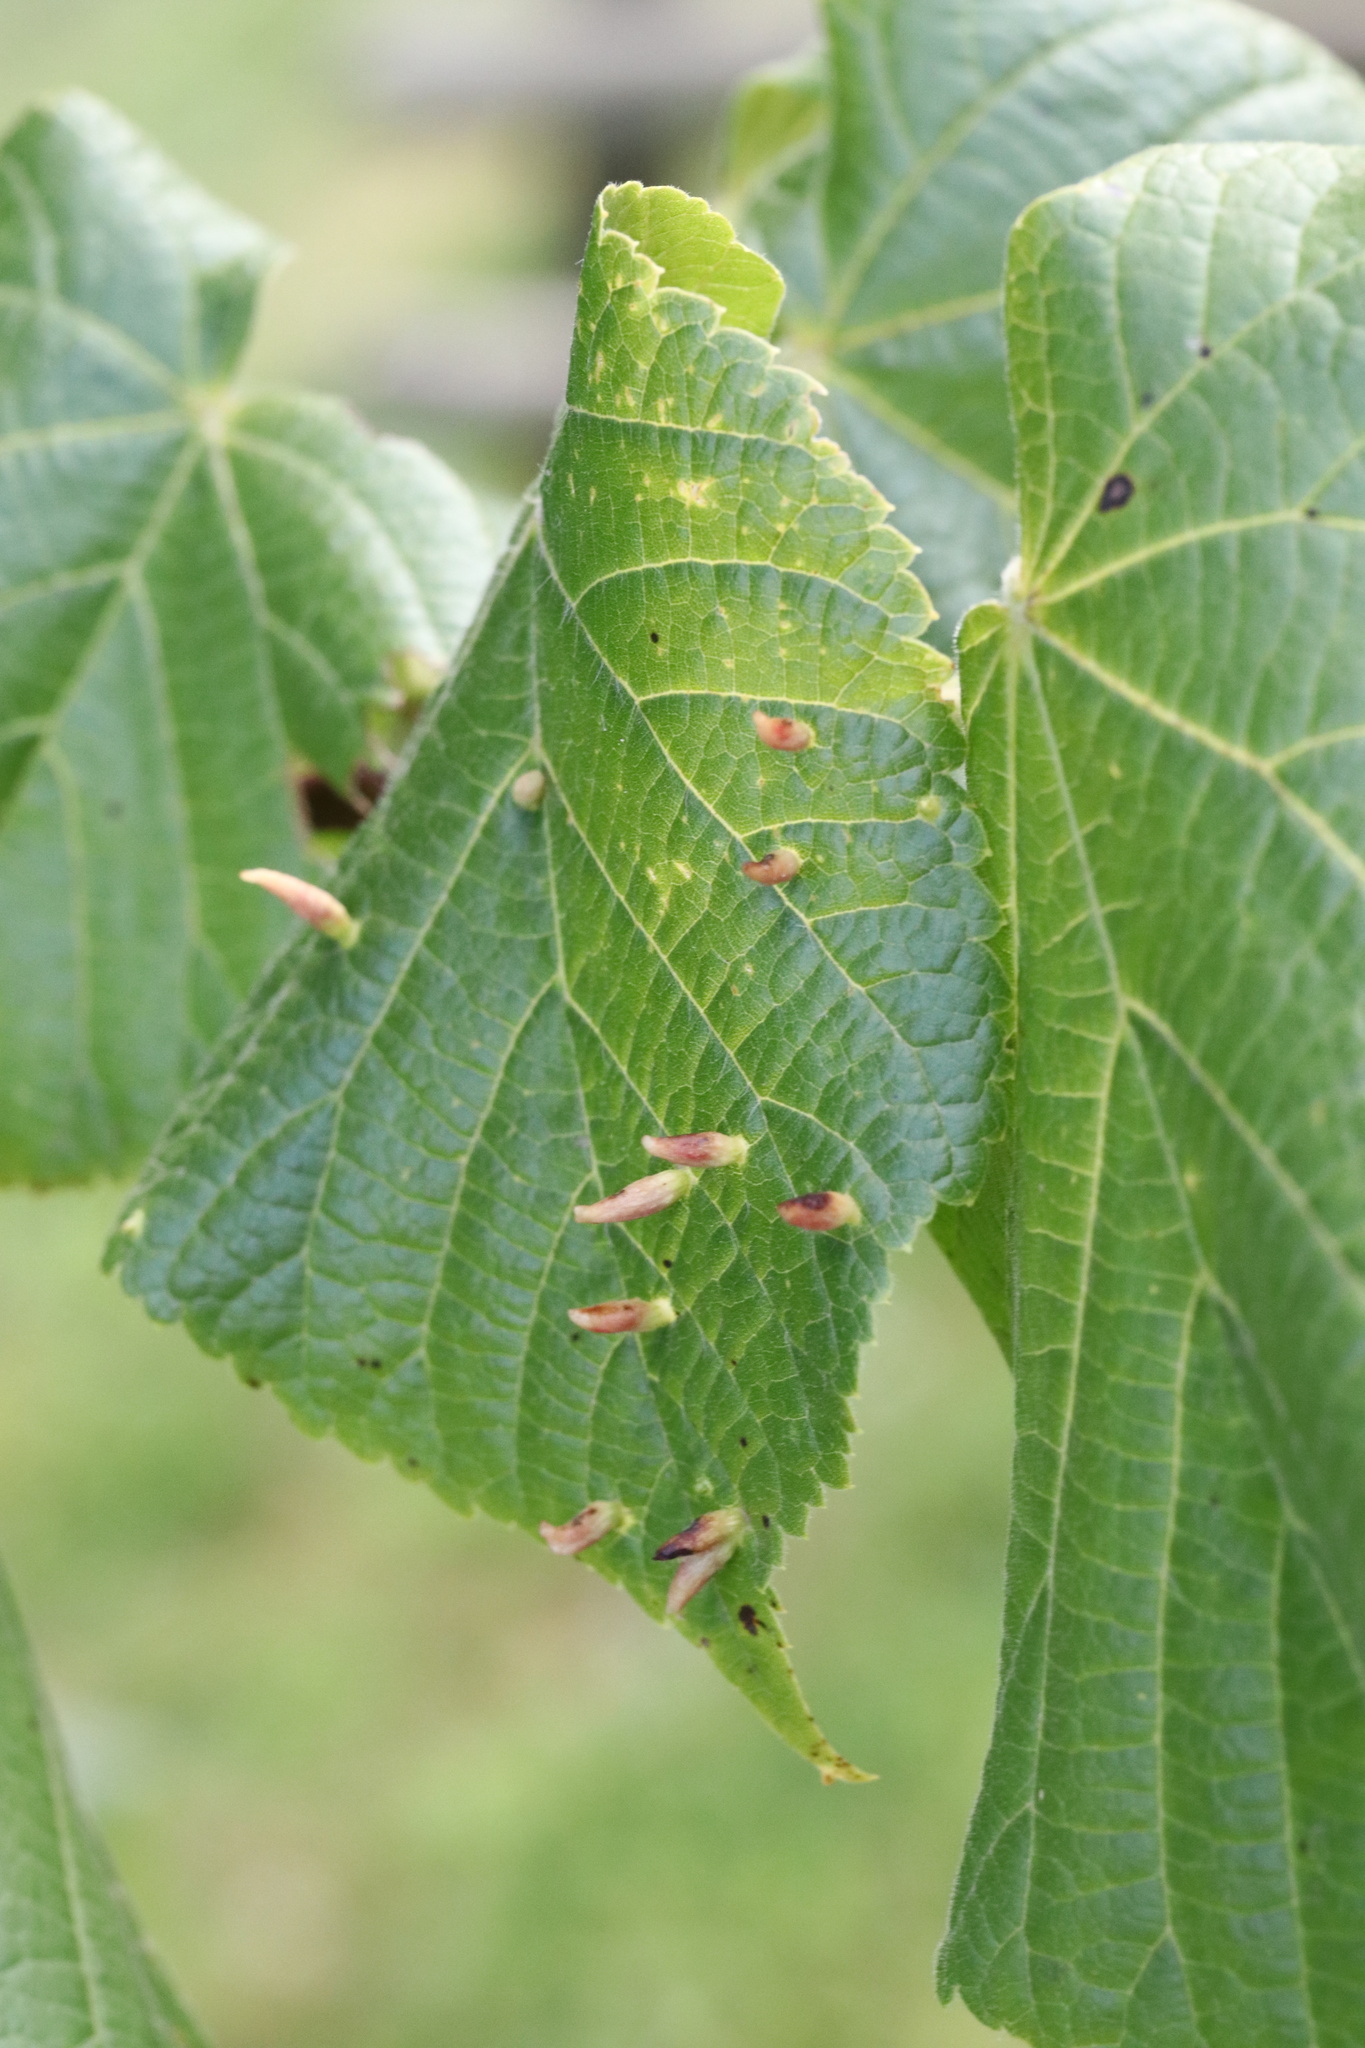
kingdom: Animalia
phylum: Arthropoda
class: Arachnida
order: Trombidiformes
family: Eriophyidae
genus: Eriophyes
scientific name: Eriophyes tiliae
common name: Red nail gall mite
